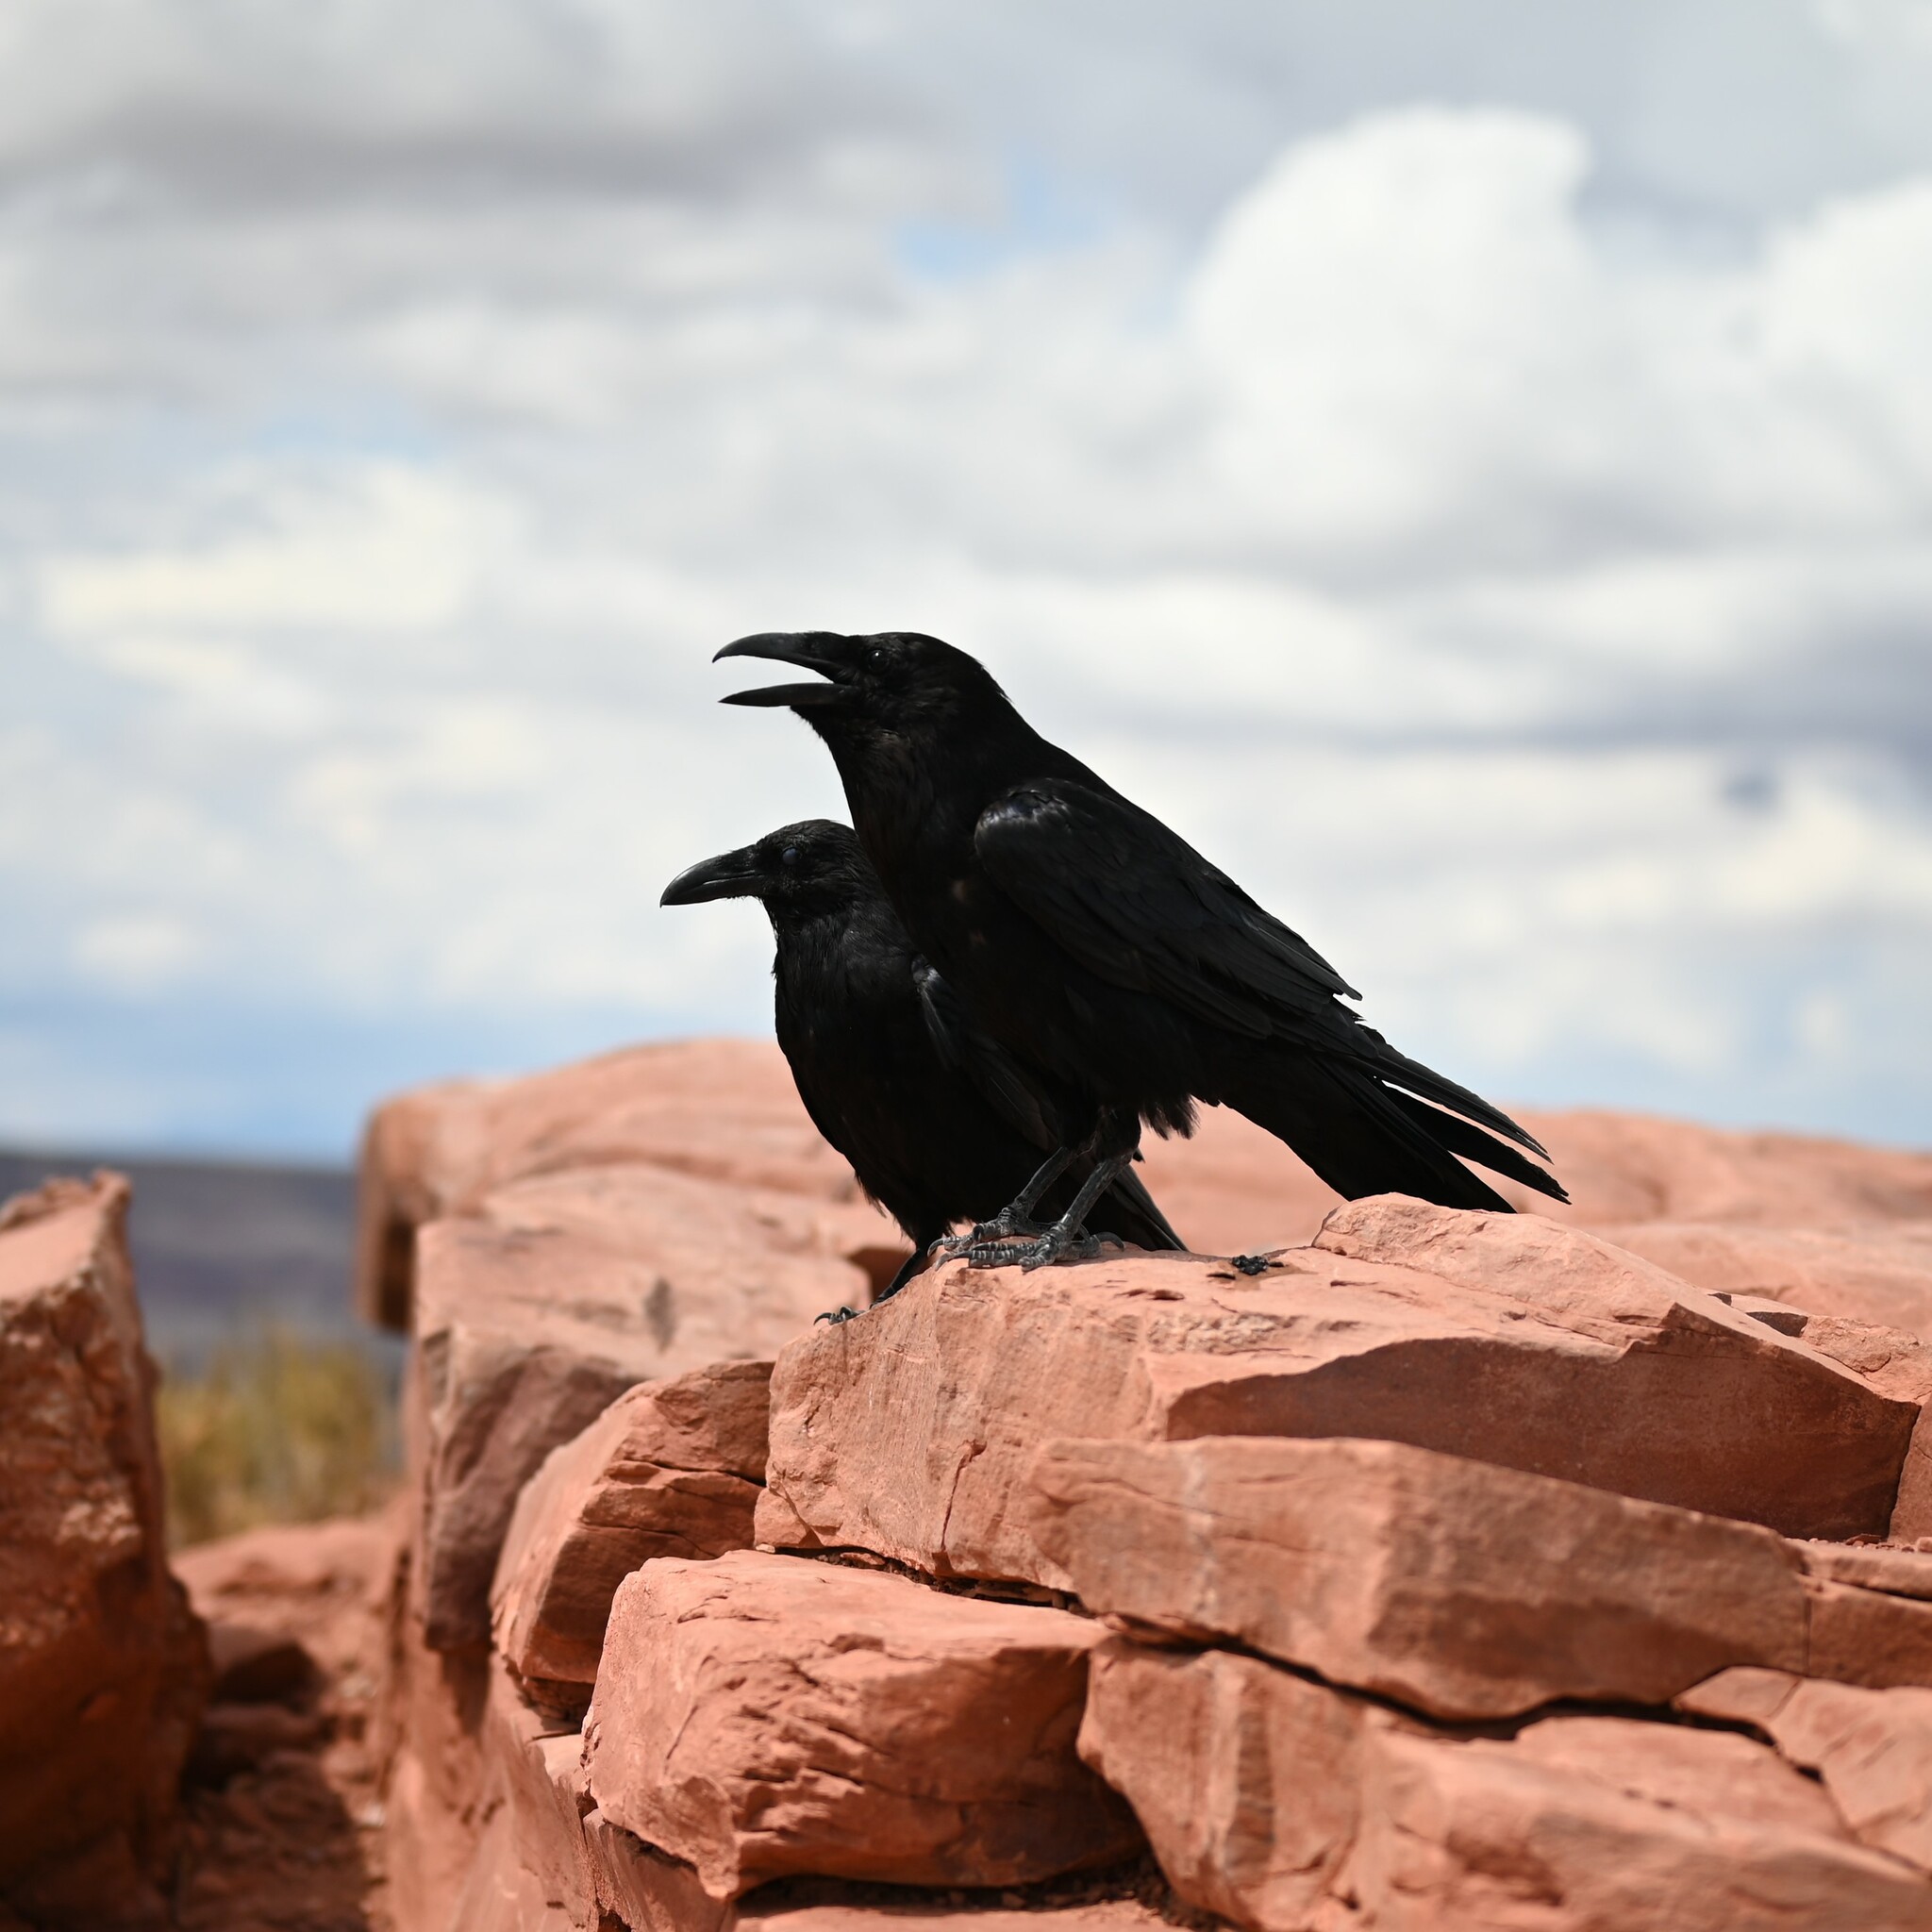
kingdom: Animalia
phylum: Chordata
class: Aves
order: Passeriformes
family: Corvidae
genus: Corvus
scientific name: Corvus corax
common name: Common raven
